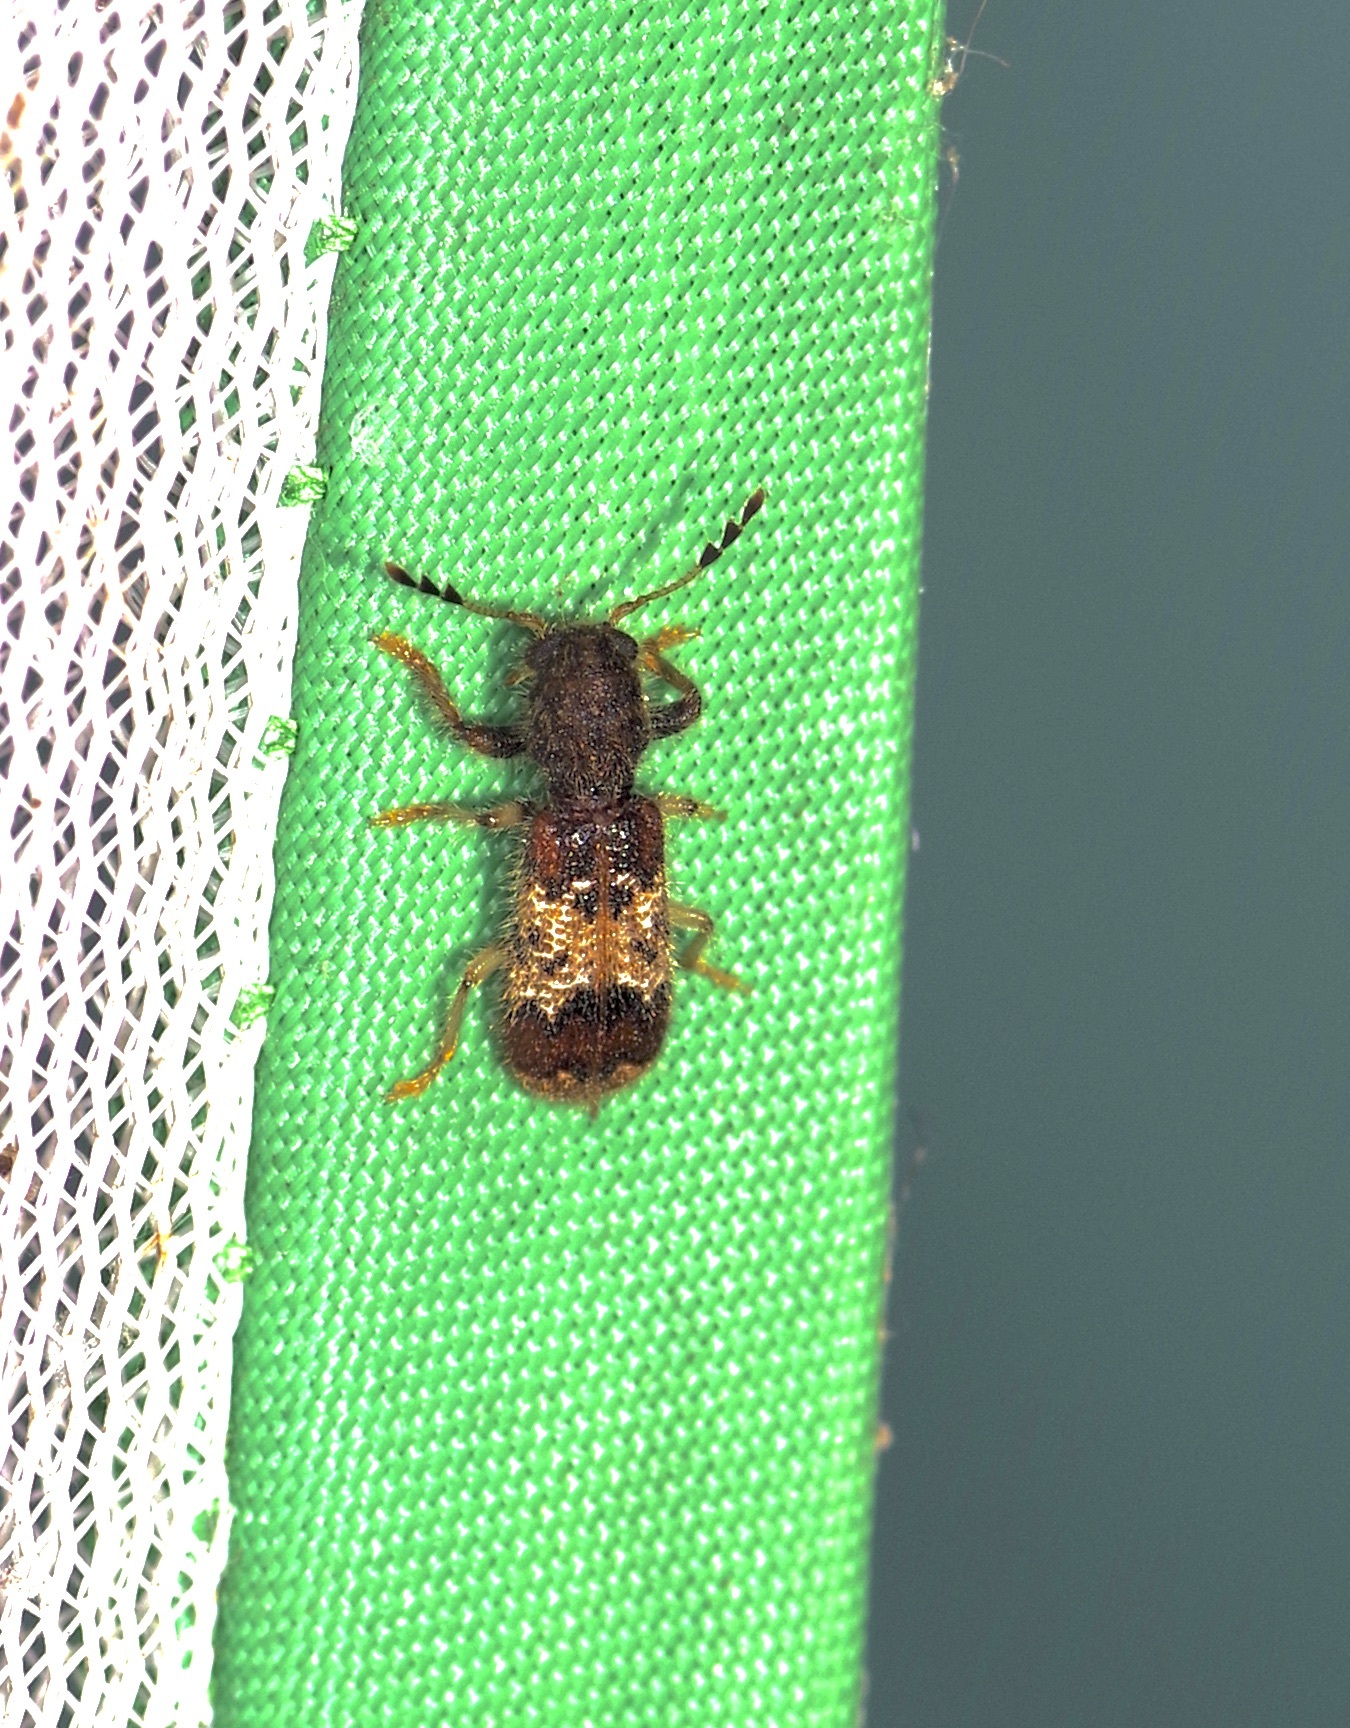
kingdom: Animalia
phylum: Arthropoda
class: Insecta
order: Coleoptera
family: Cleridae
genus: Pelonium
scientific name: Pelonium leucophaeum
